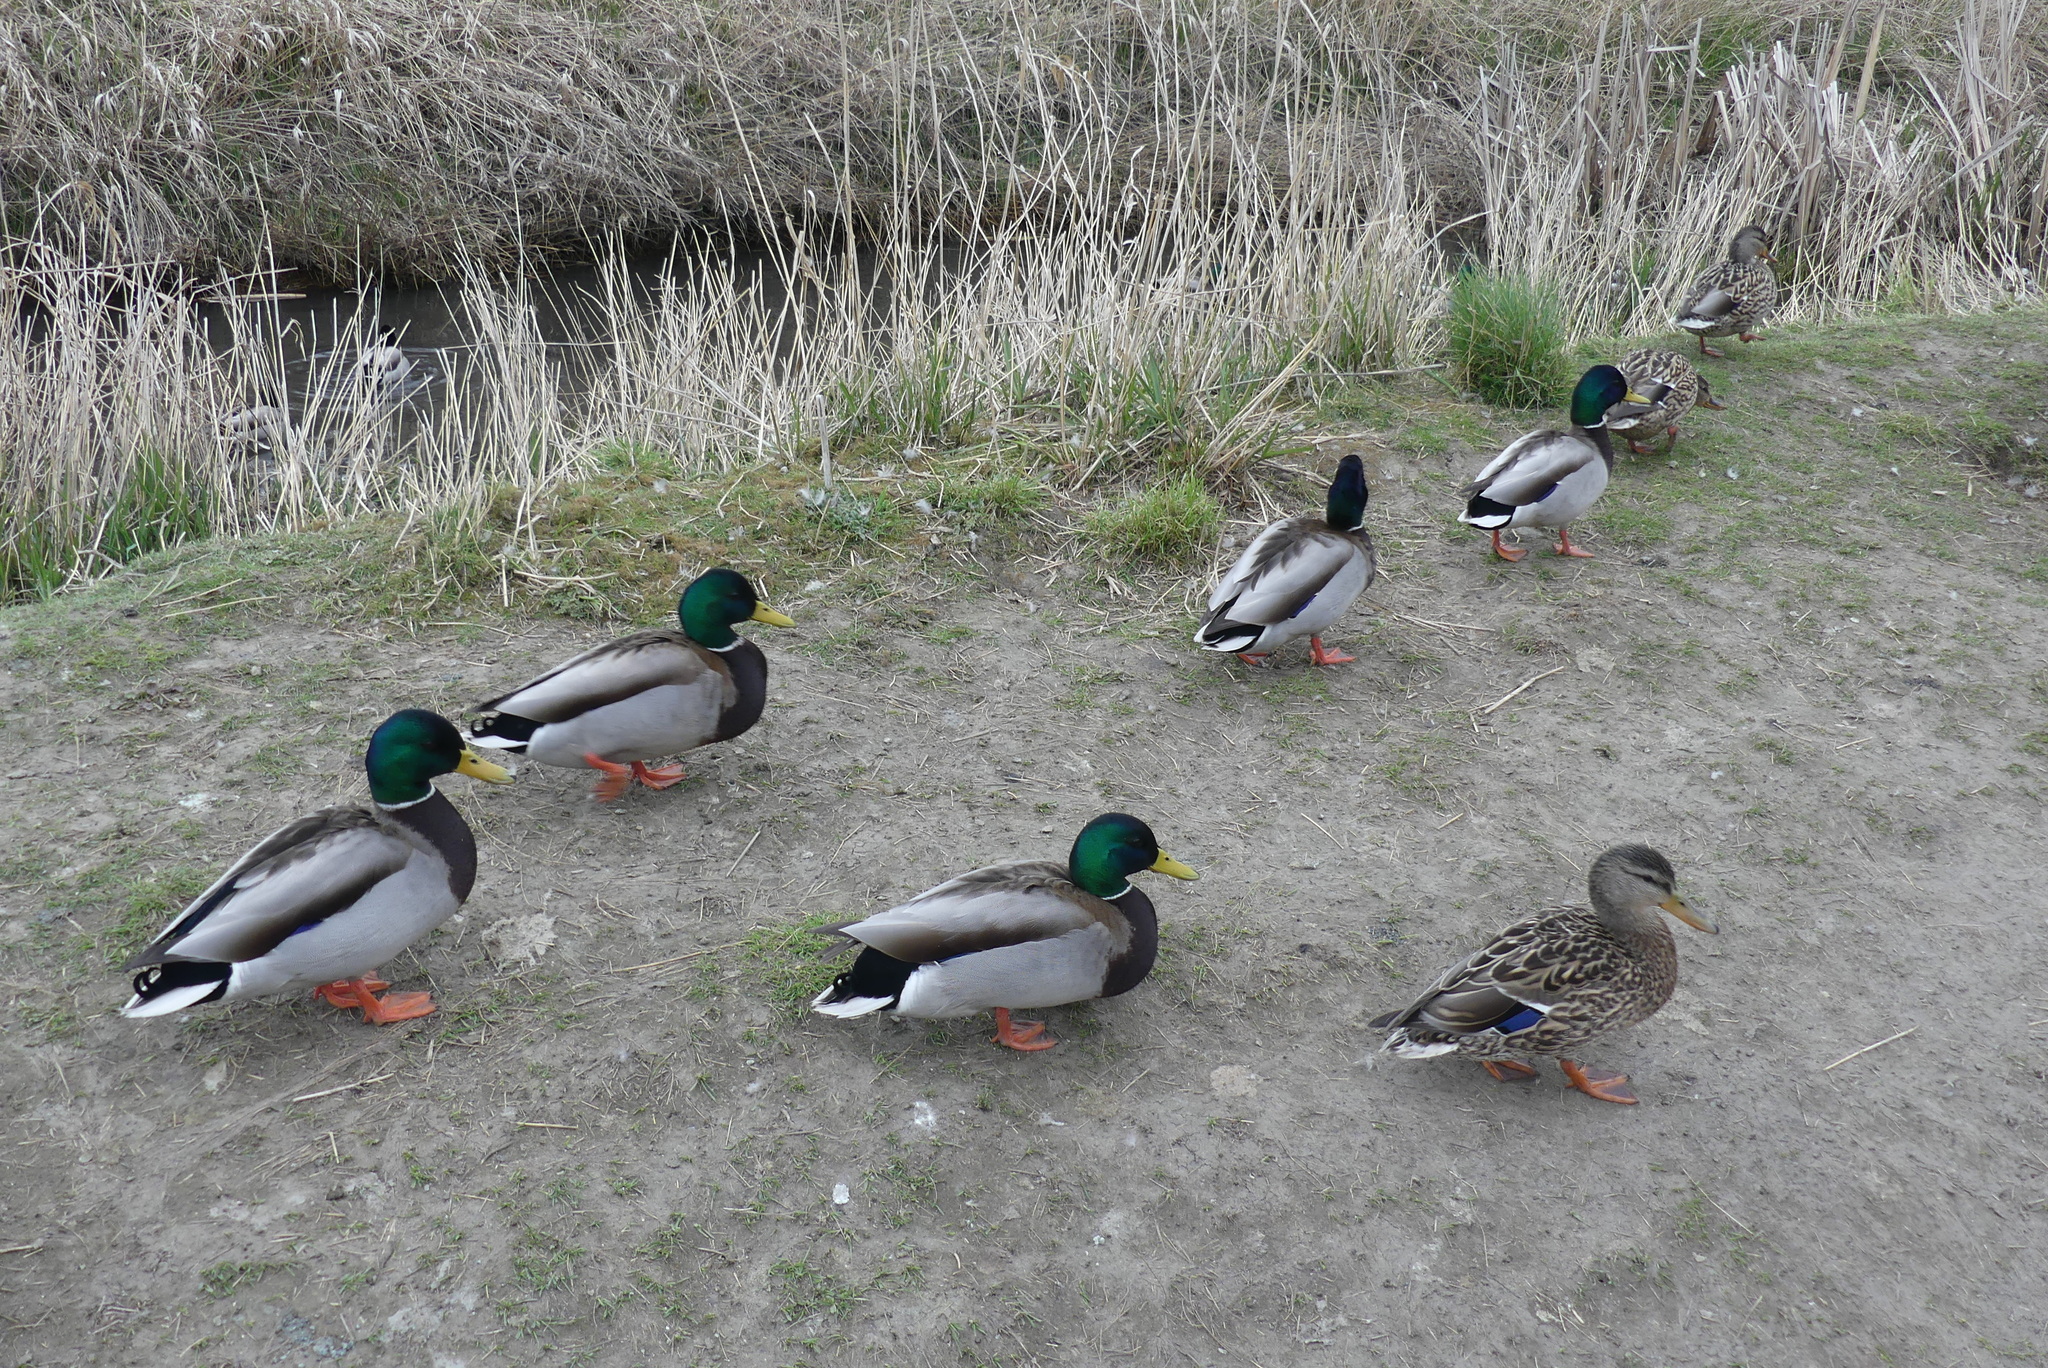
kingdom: Animalia
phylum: Chordata
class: Aves
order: Anseriformes
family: Anatidae
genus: Anas
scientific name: Anas platyrhynchos
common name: Mallard
